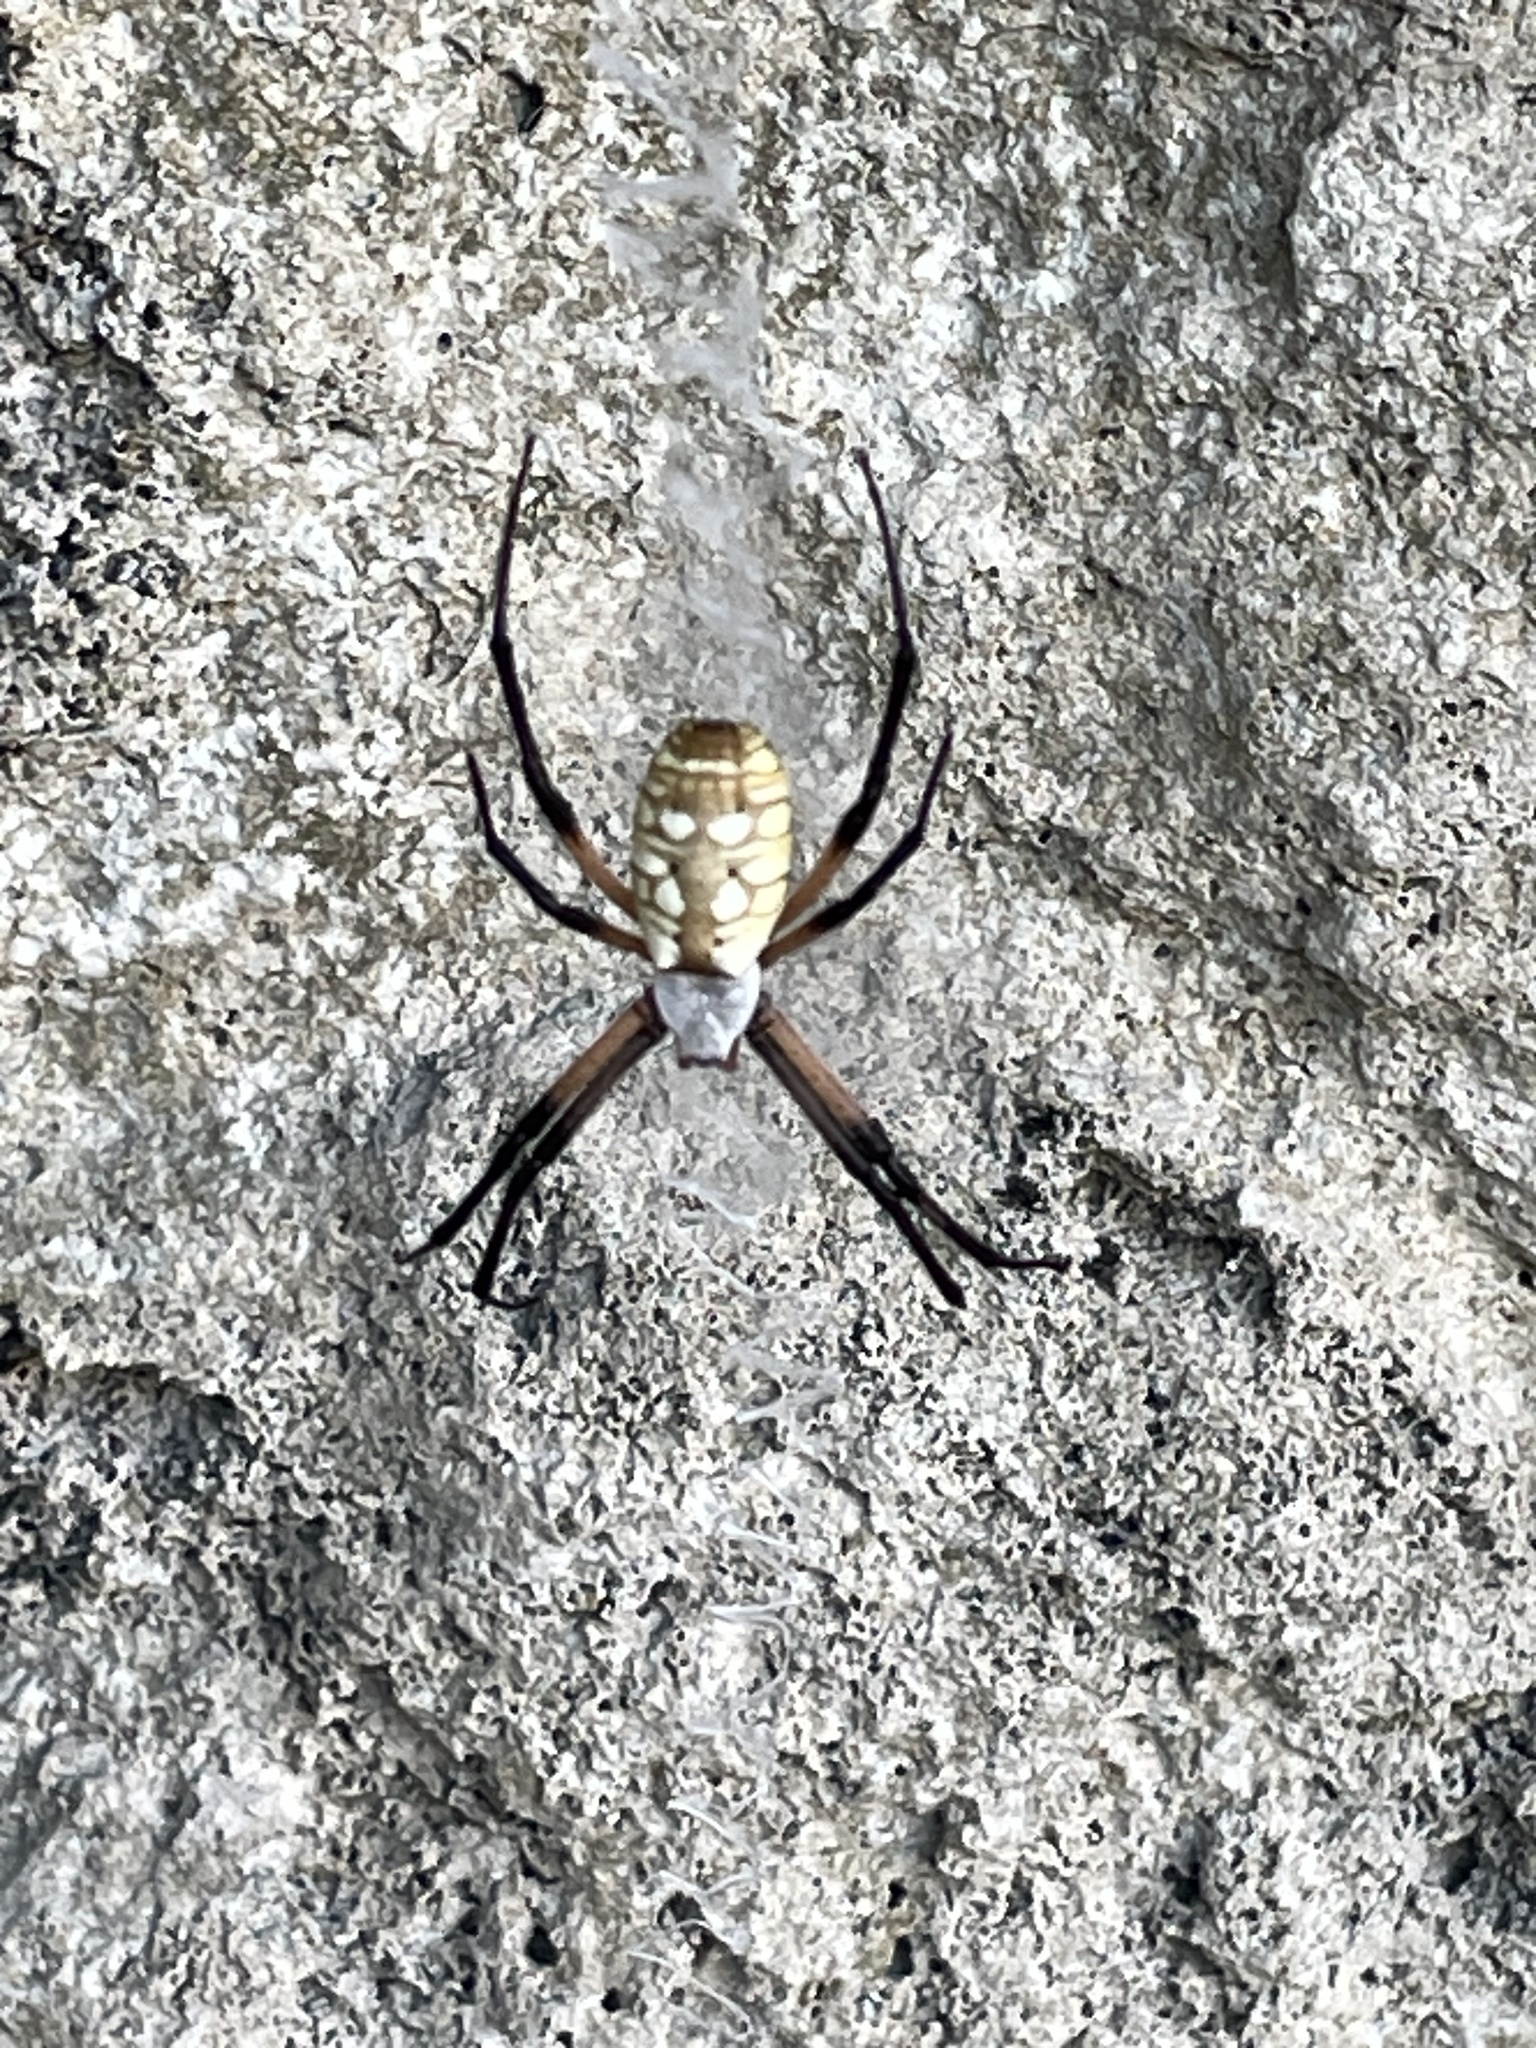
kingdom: Animalia
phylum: Arthropoda
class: Arachnida
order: Araneae
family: Araneidae
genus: Argiope
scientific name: Argiope aurantia
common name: Orb weavers
